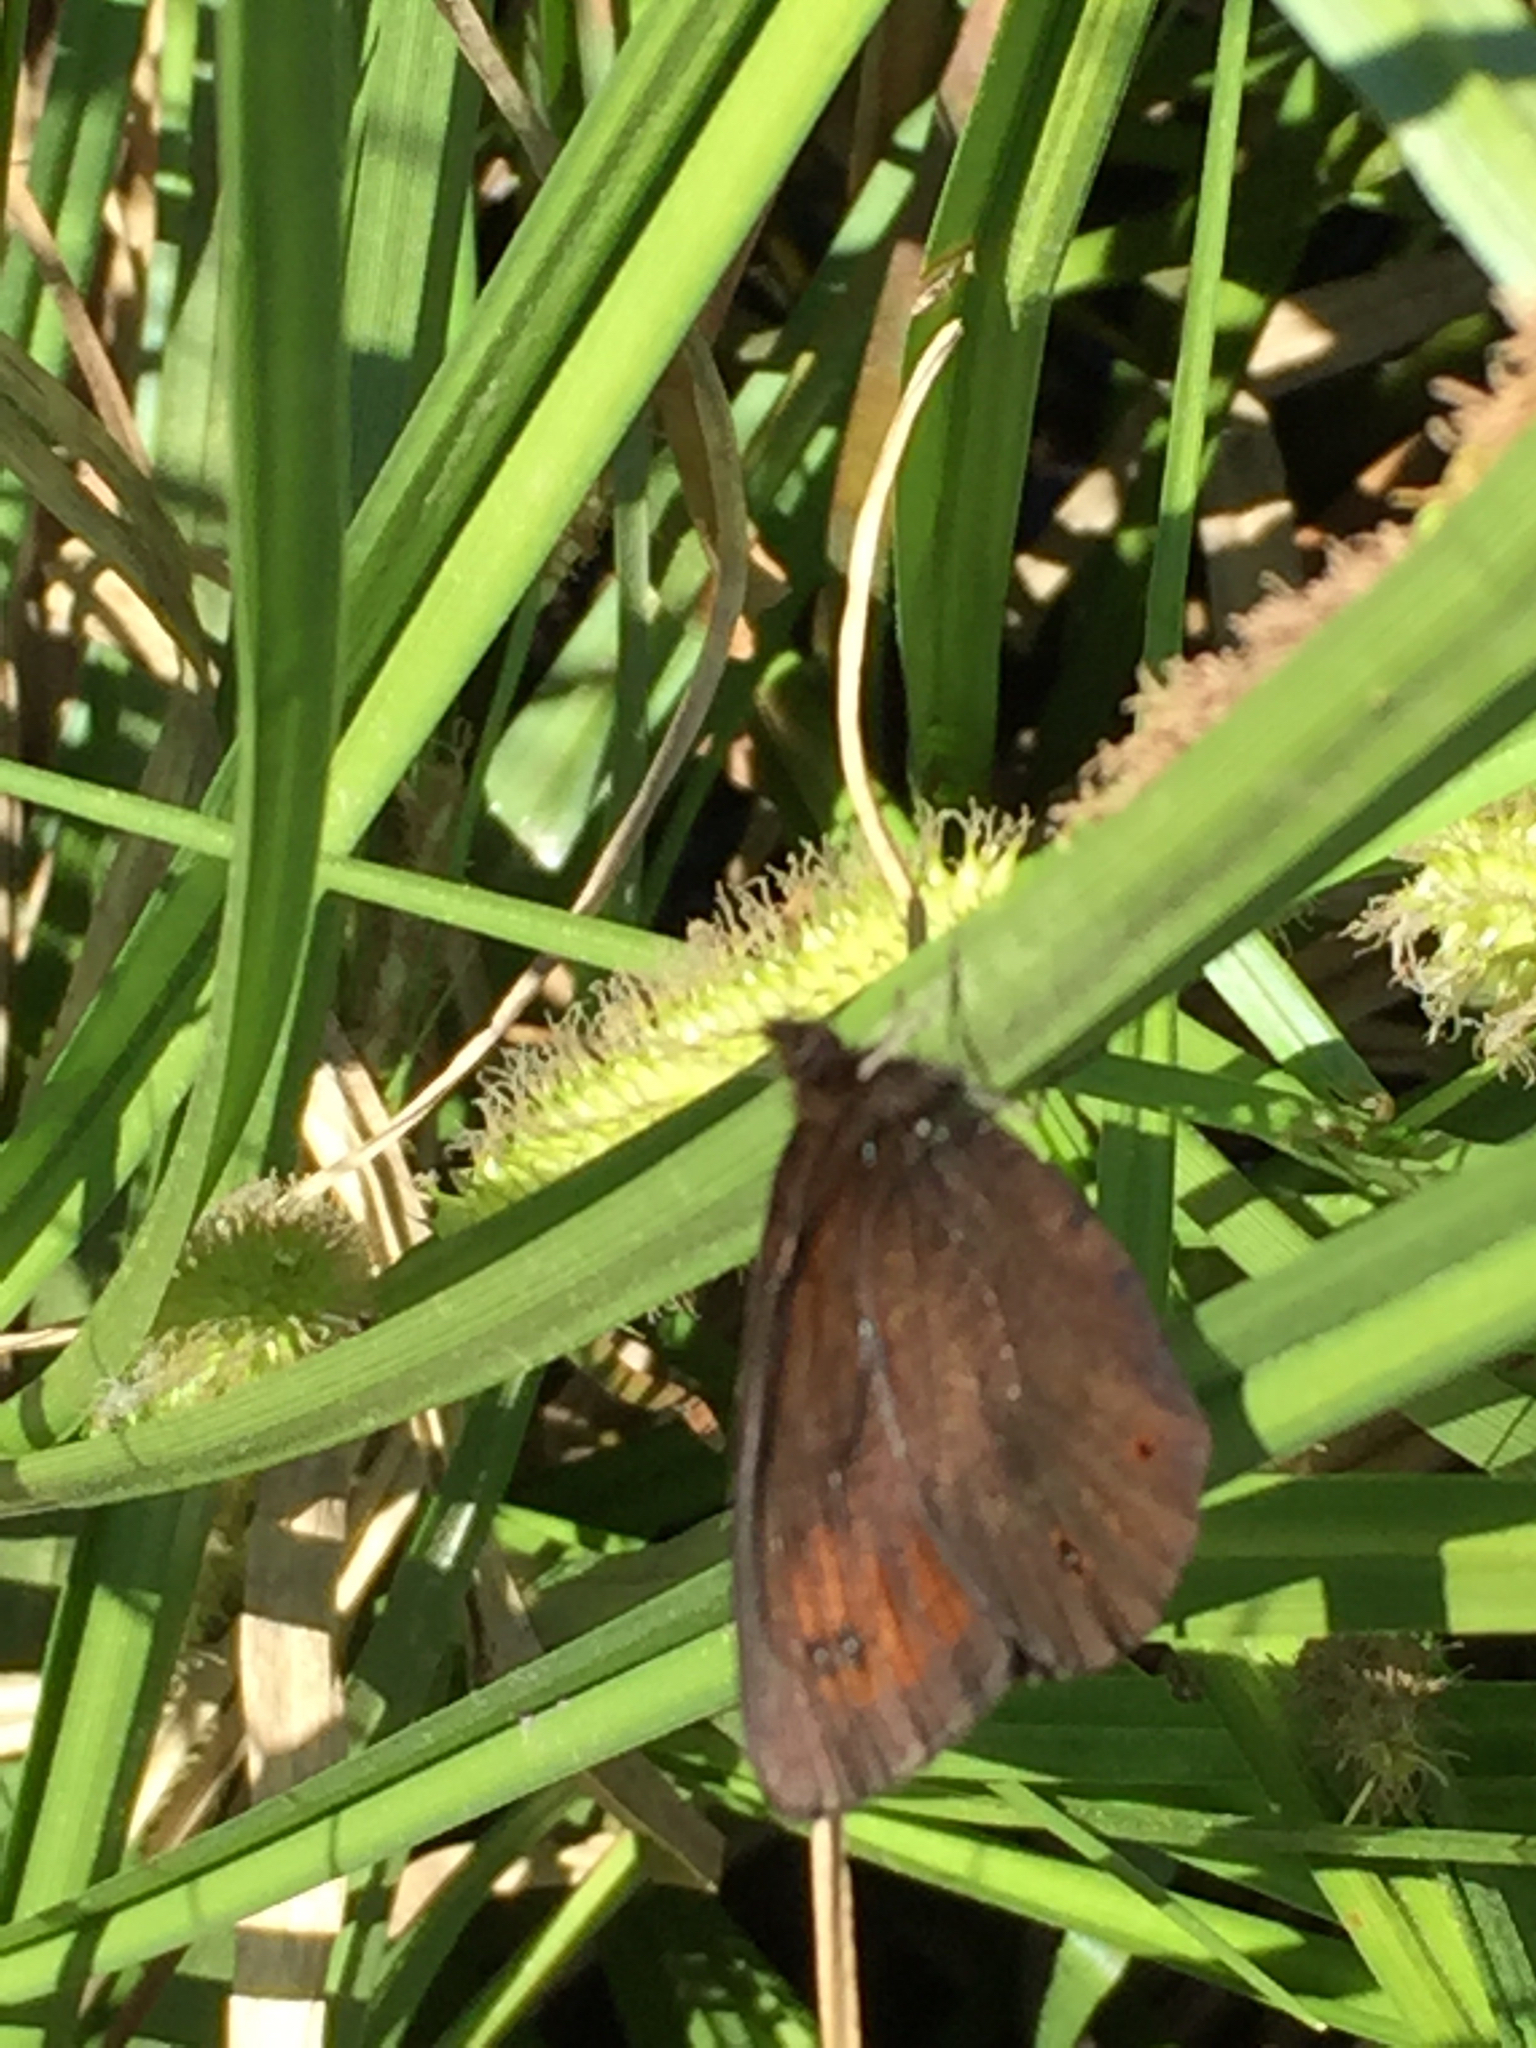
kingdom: Animalia
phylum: Arthropoda
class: Insecta
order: Lepidoptera
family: Nymphalidae
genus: Erebia
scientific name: Erebia epipsodea
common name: Common alpine
